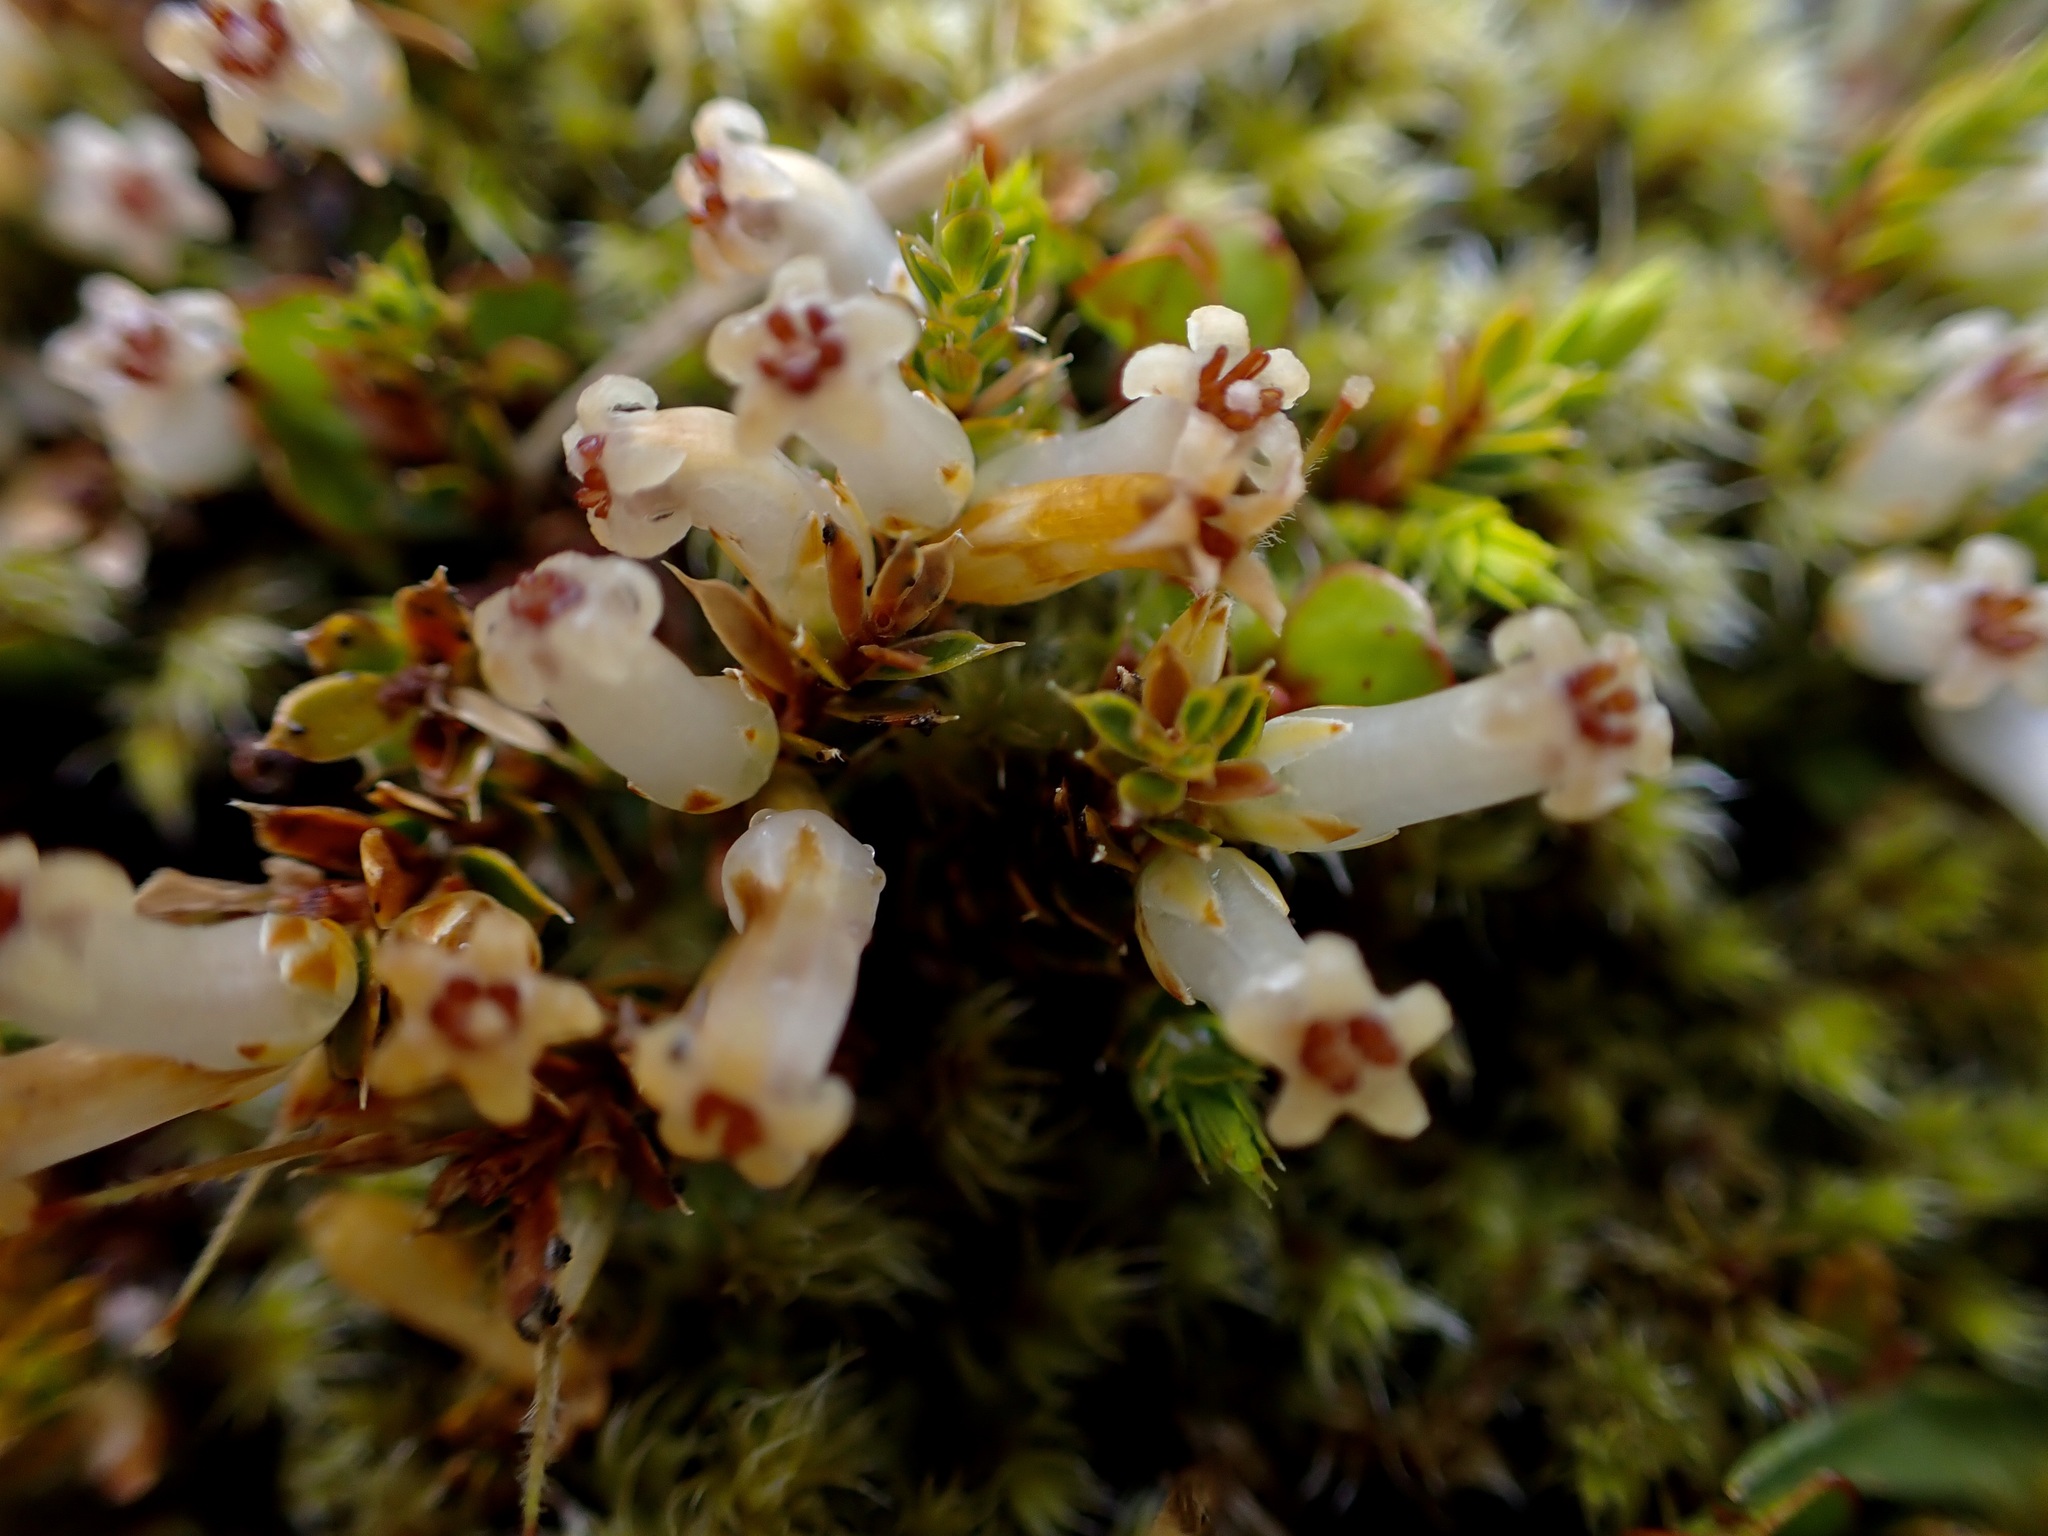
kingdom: Plantae
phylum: Tracheophyta
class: Magnoliopsida
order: Ericales
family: Ericaceae
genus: Styphelia
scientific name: Styphelia nesophila
